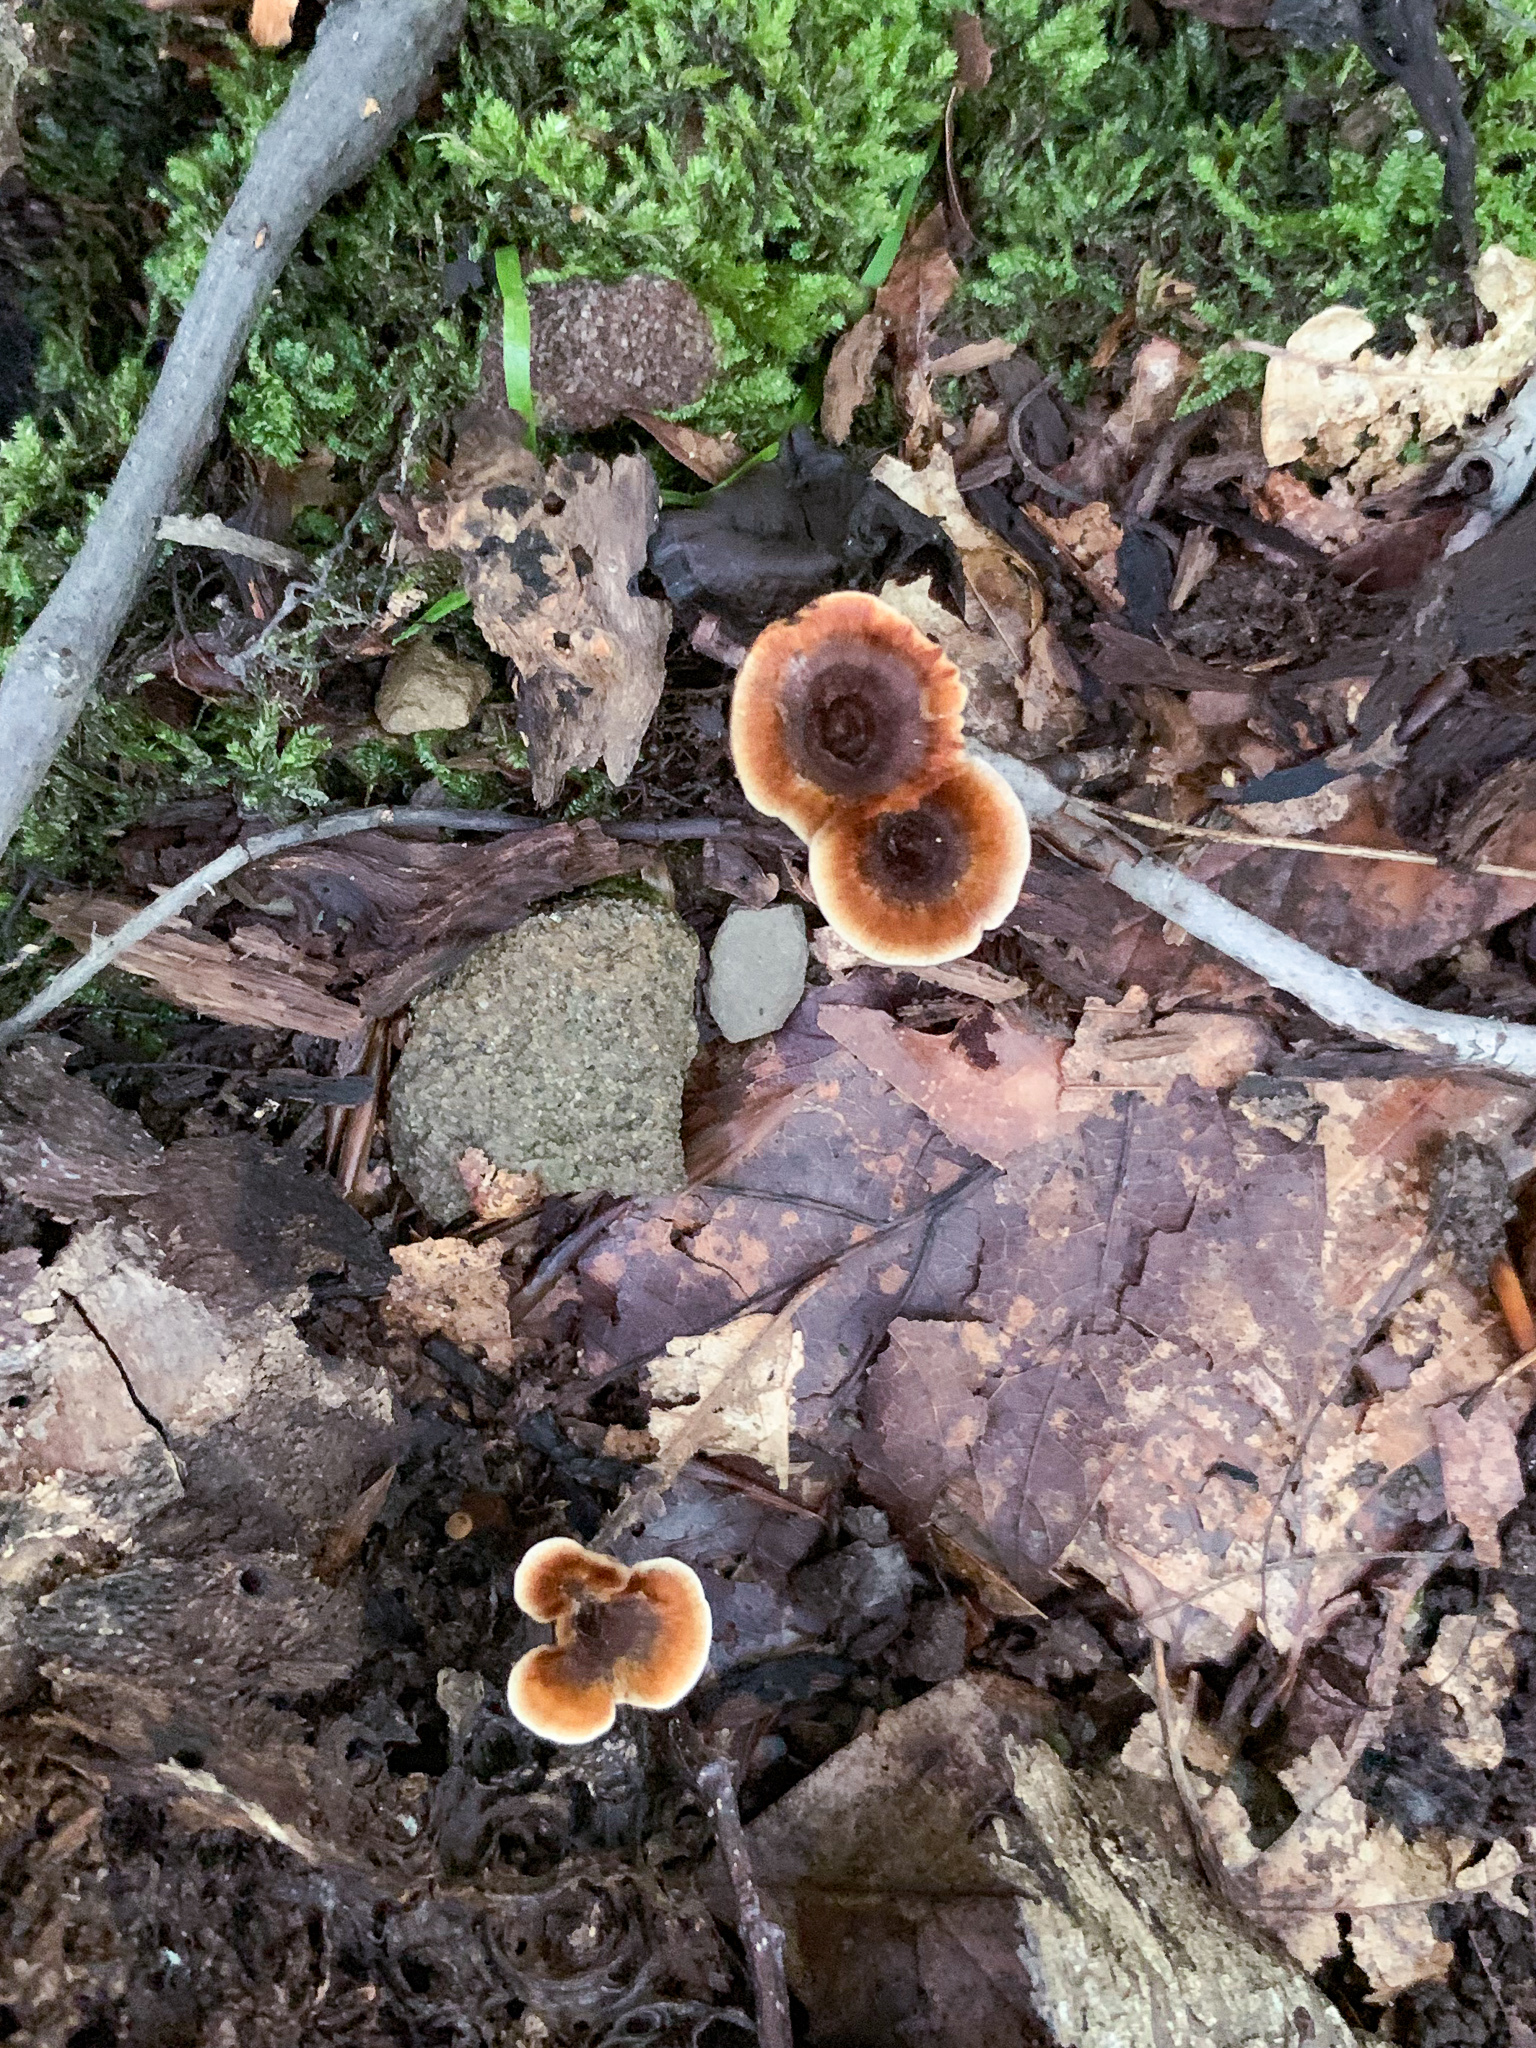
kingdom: Fungi
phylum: Basidiomycota
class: Agaricomycetes
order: Hymenochaetales
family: Hymenochaetaceae
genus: Coltricia
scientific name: Coltricia cinnamomea
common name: Shiny cinnamon polypore
